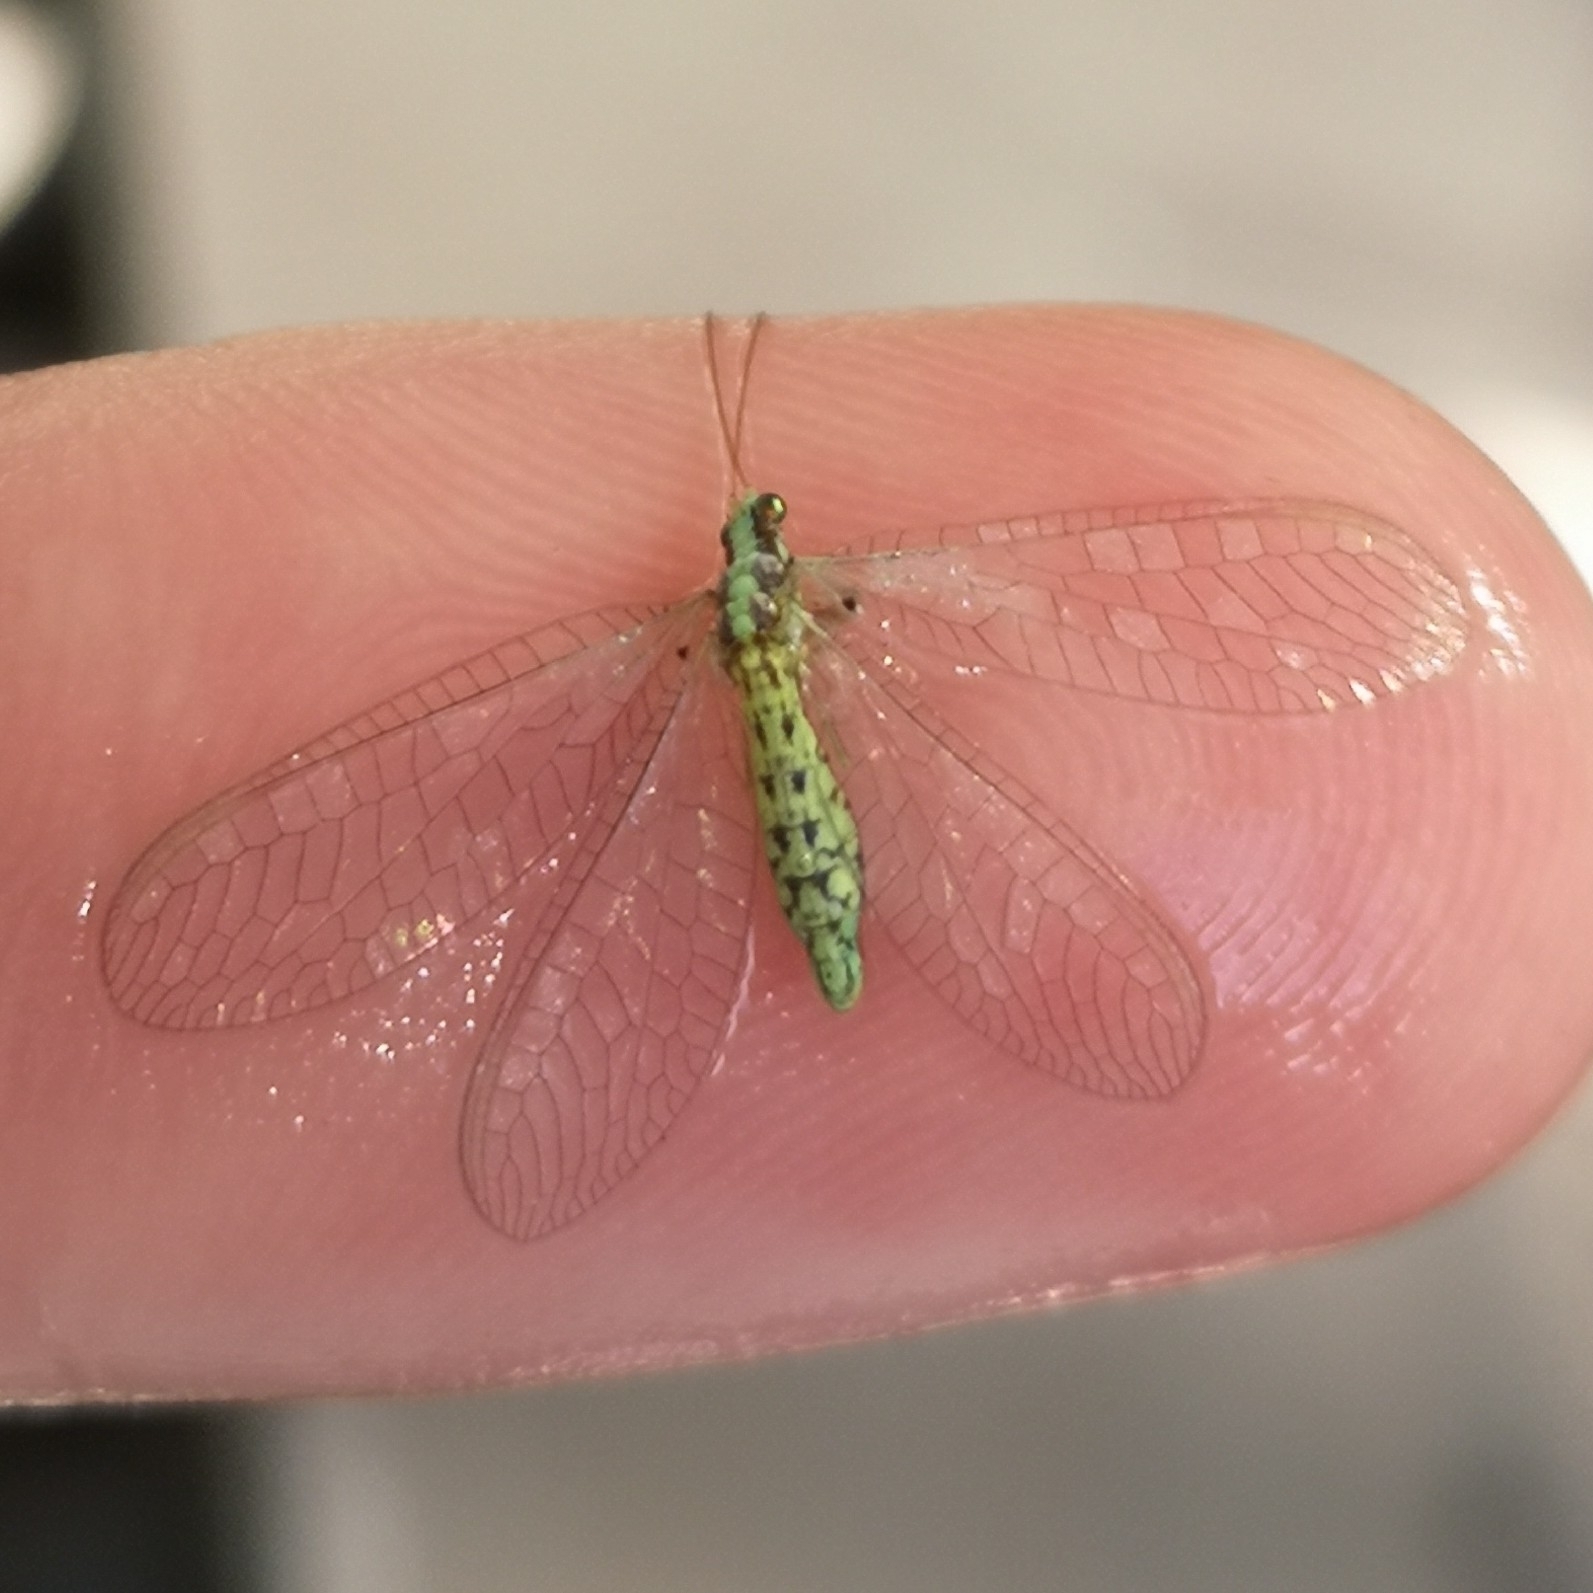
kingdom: Animalia
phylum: Arthropoda
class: Insecta
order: Neuroptera
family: Chrysopidae
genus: Pseudomallada
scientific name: Pseudomallada subcostalis
